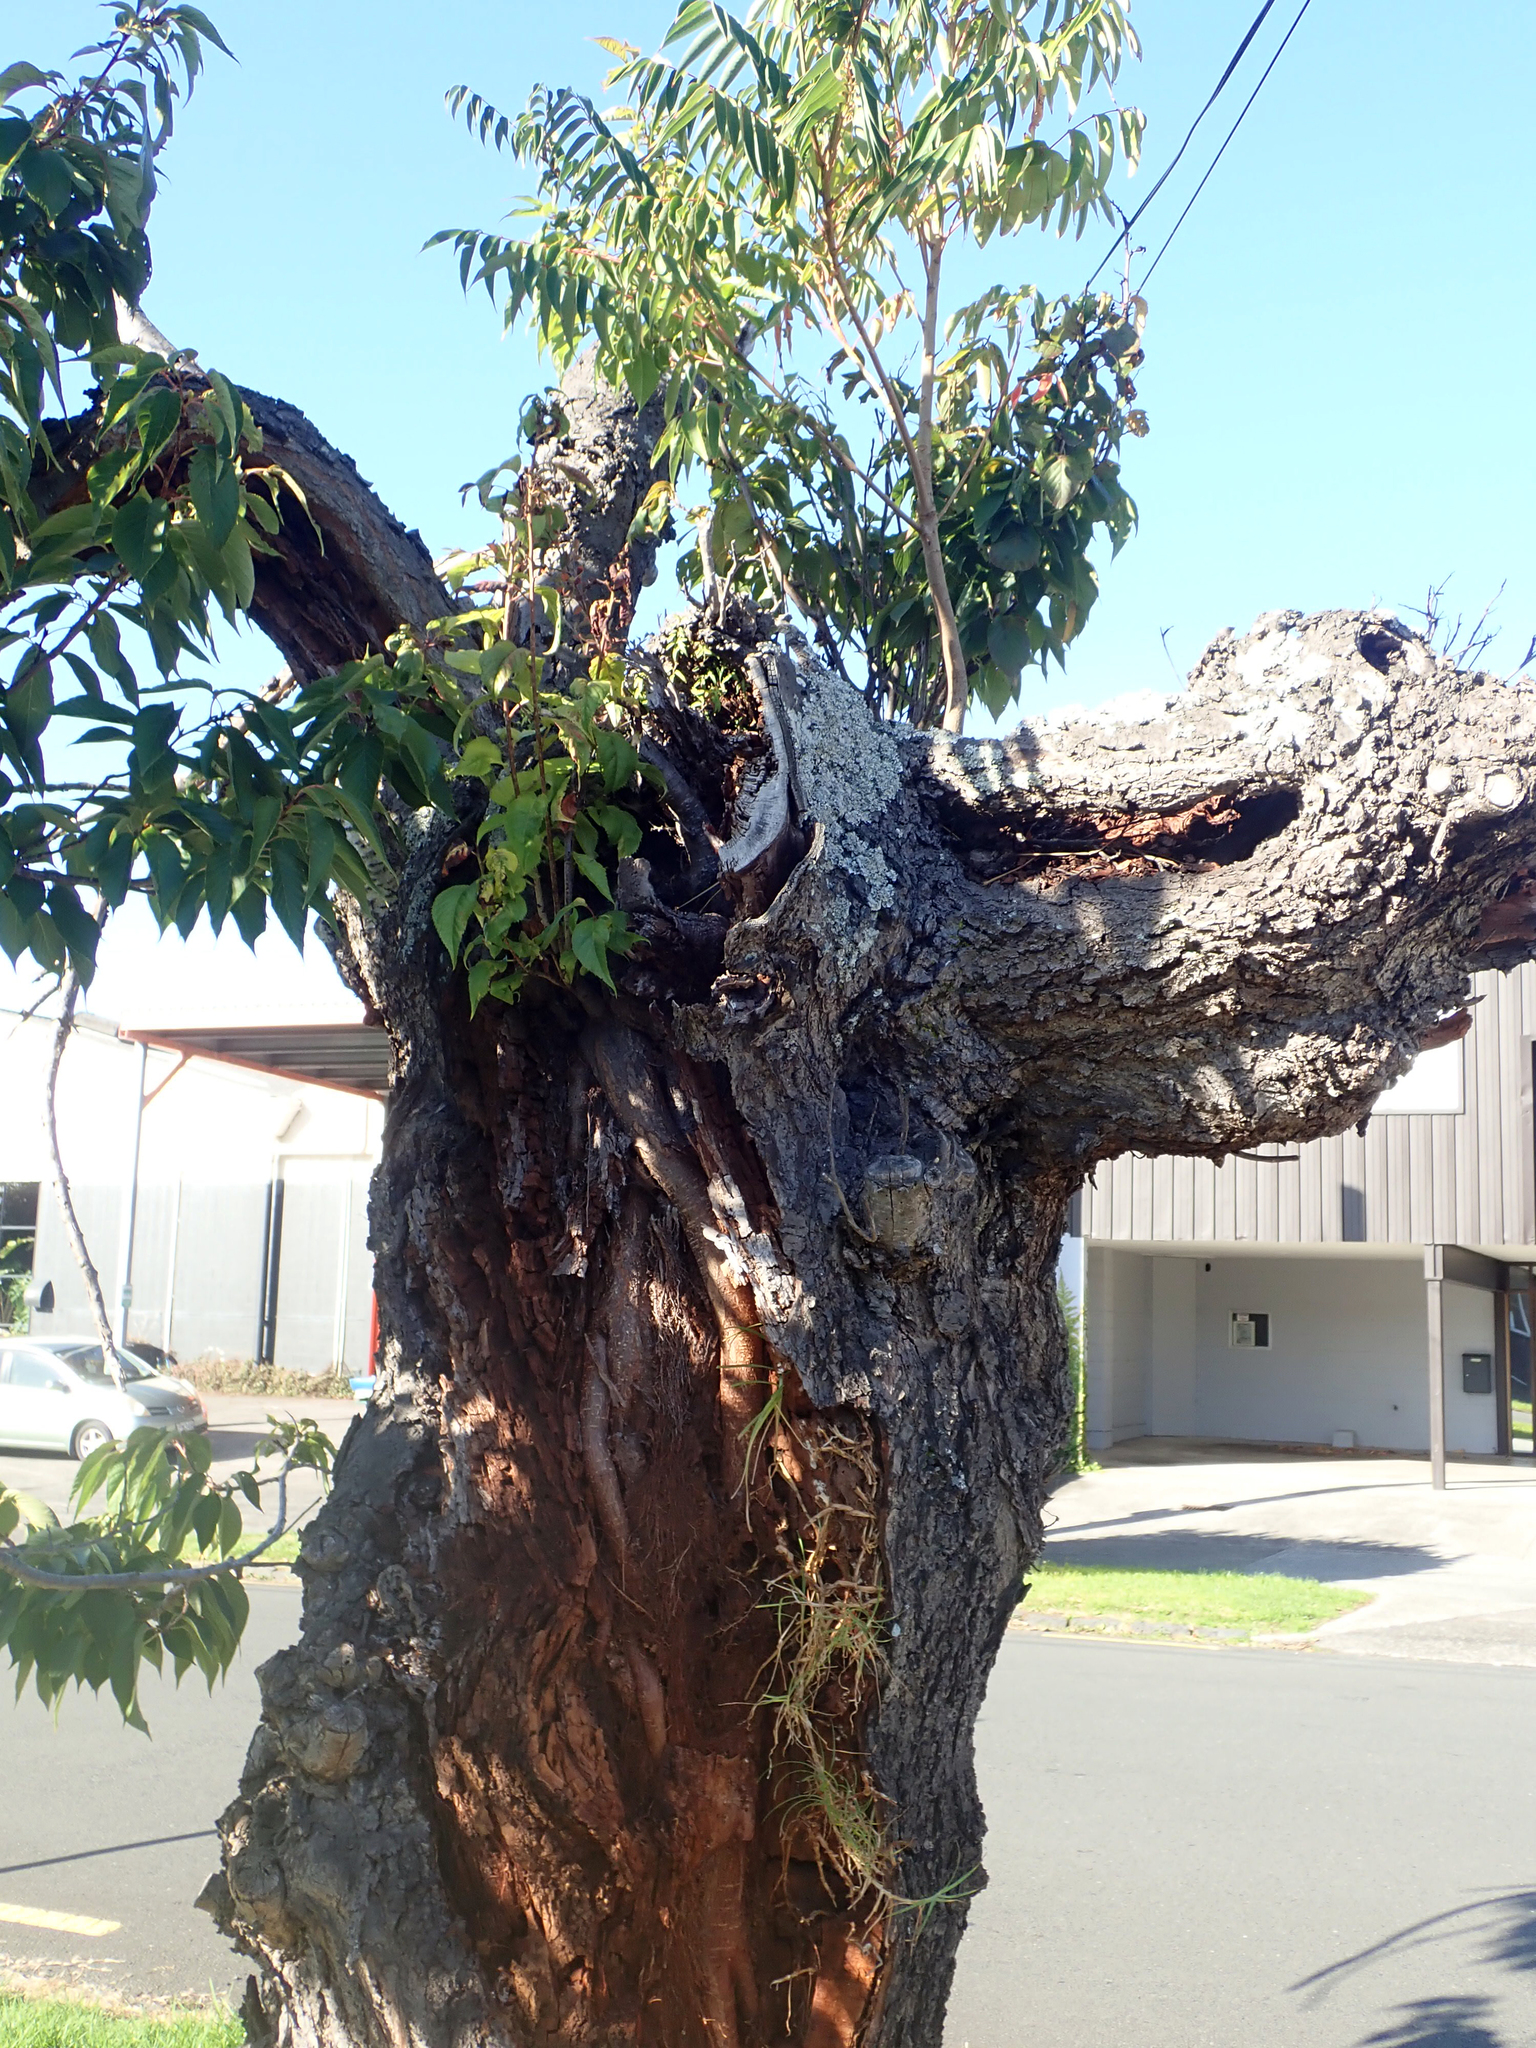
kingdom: Plantae
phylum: Tracheophyta
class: Magnoliopsida
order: Sapindales
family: Anacardiaceae
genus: Toxicodendron
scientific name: Toxicodendron succedaneum
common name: Wax tree
